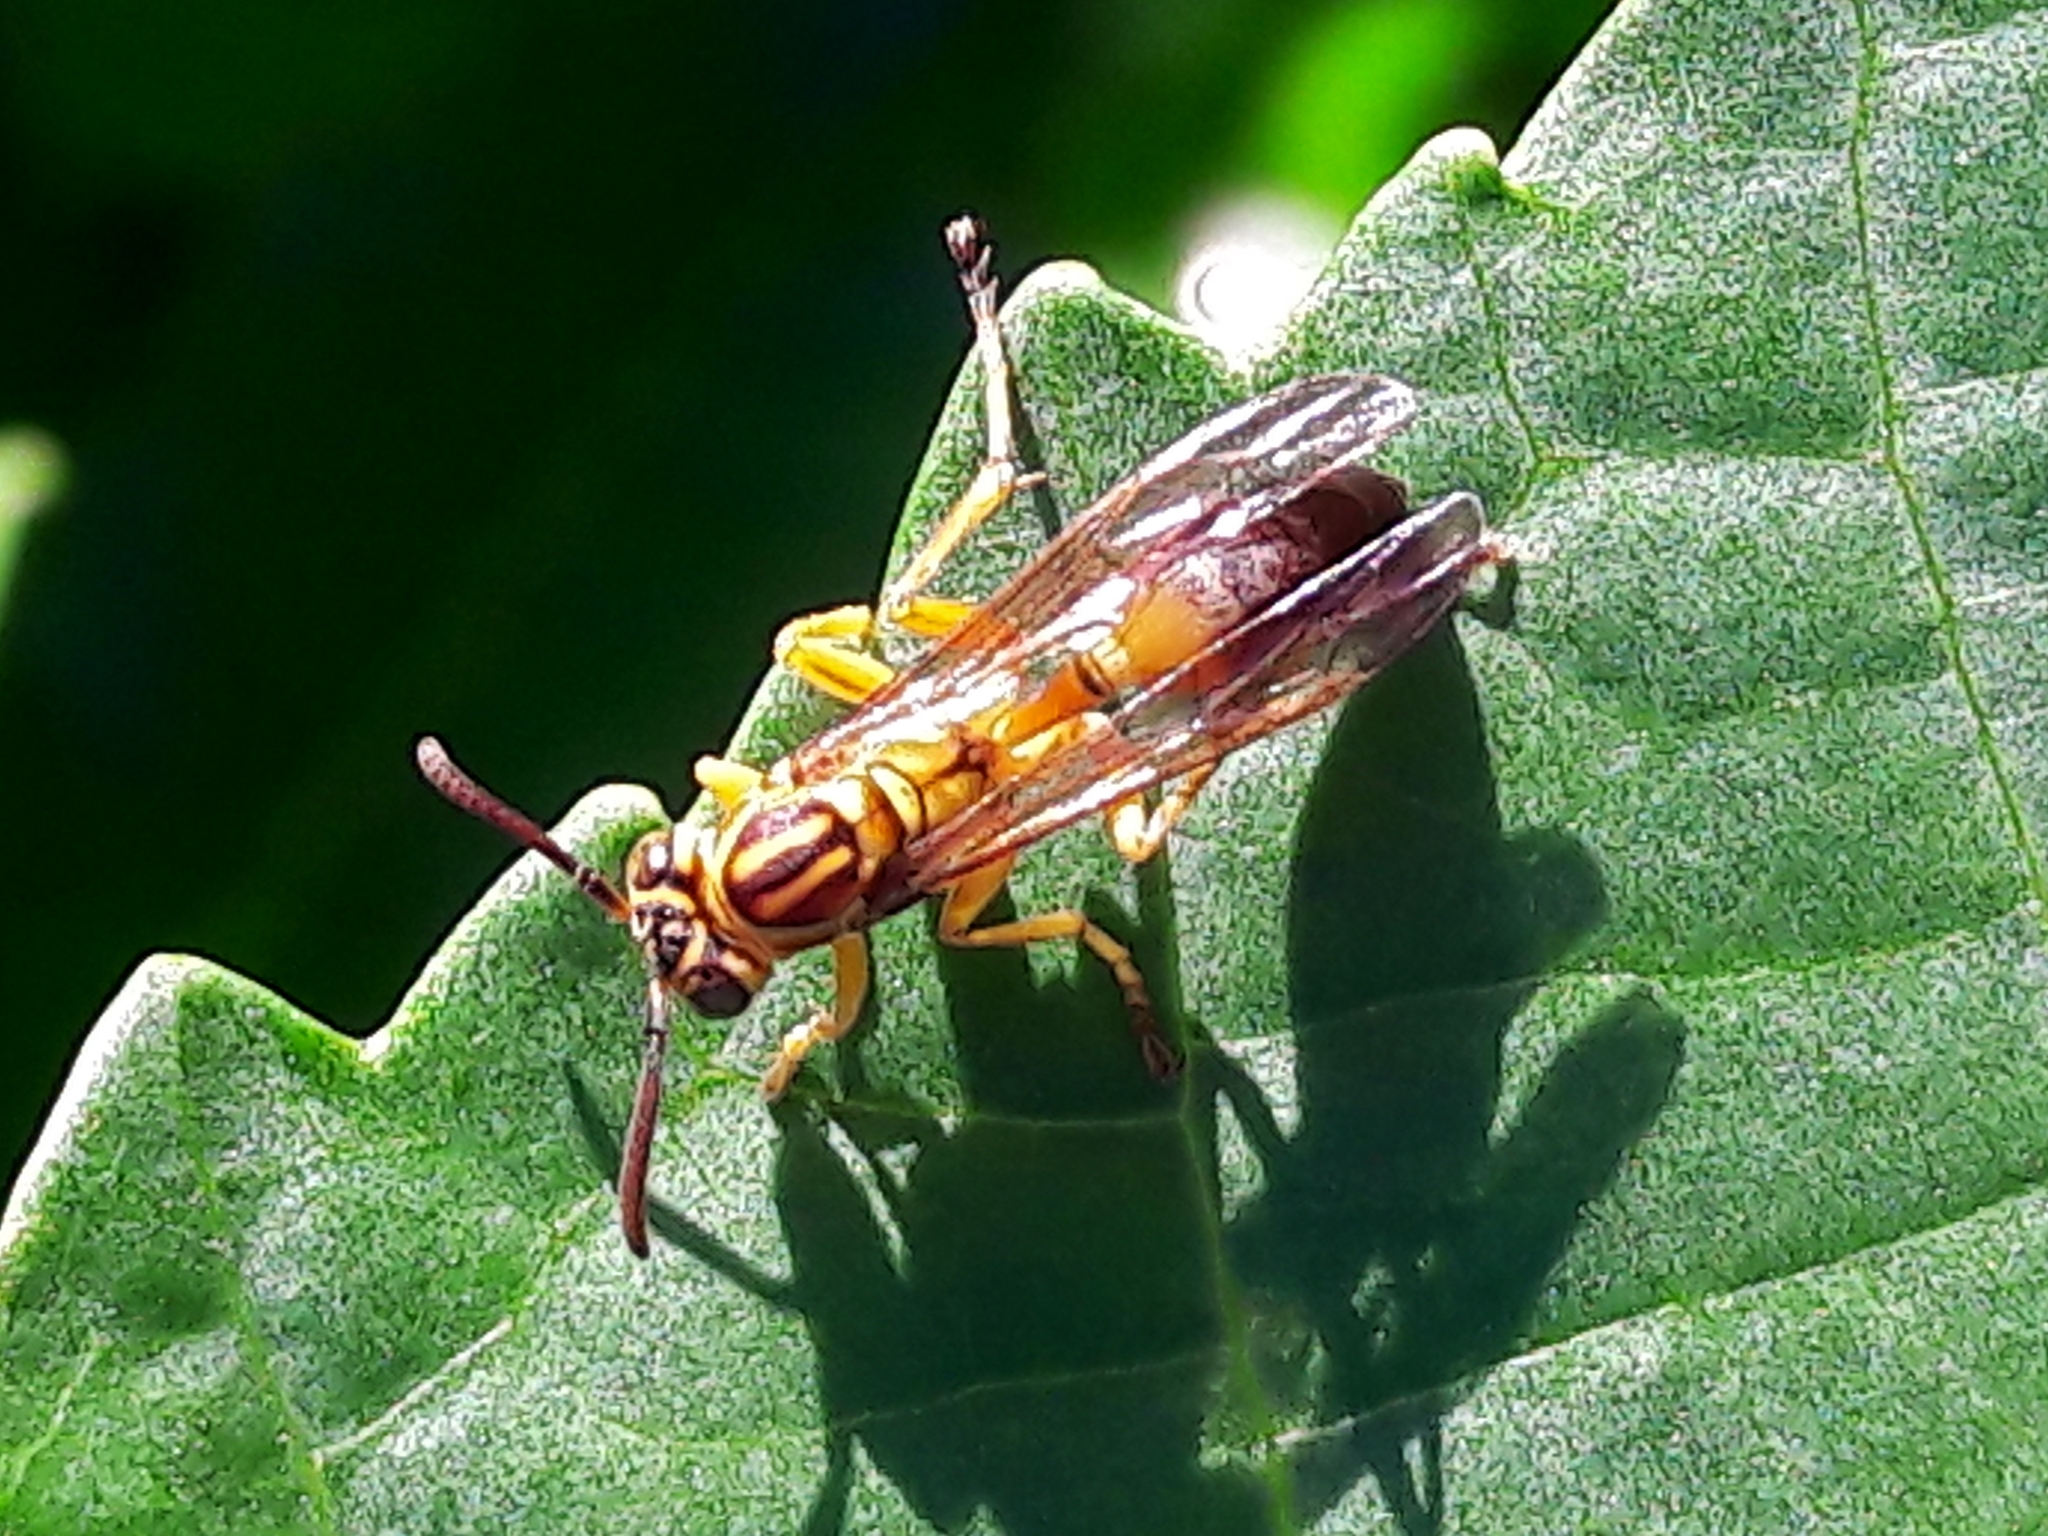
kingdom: Animalia
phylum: Arthropoda
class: Insecta
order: Hymenoptera
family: Vespidae
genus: Mischocyttarus
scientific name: Mischocyttarus cerberus
